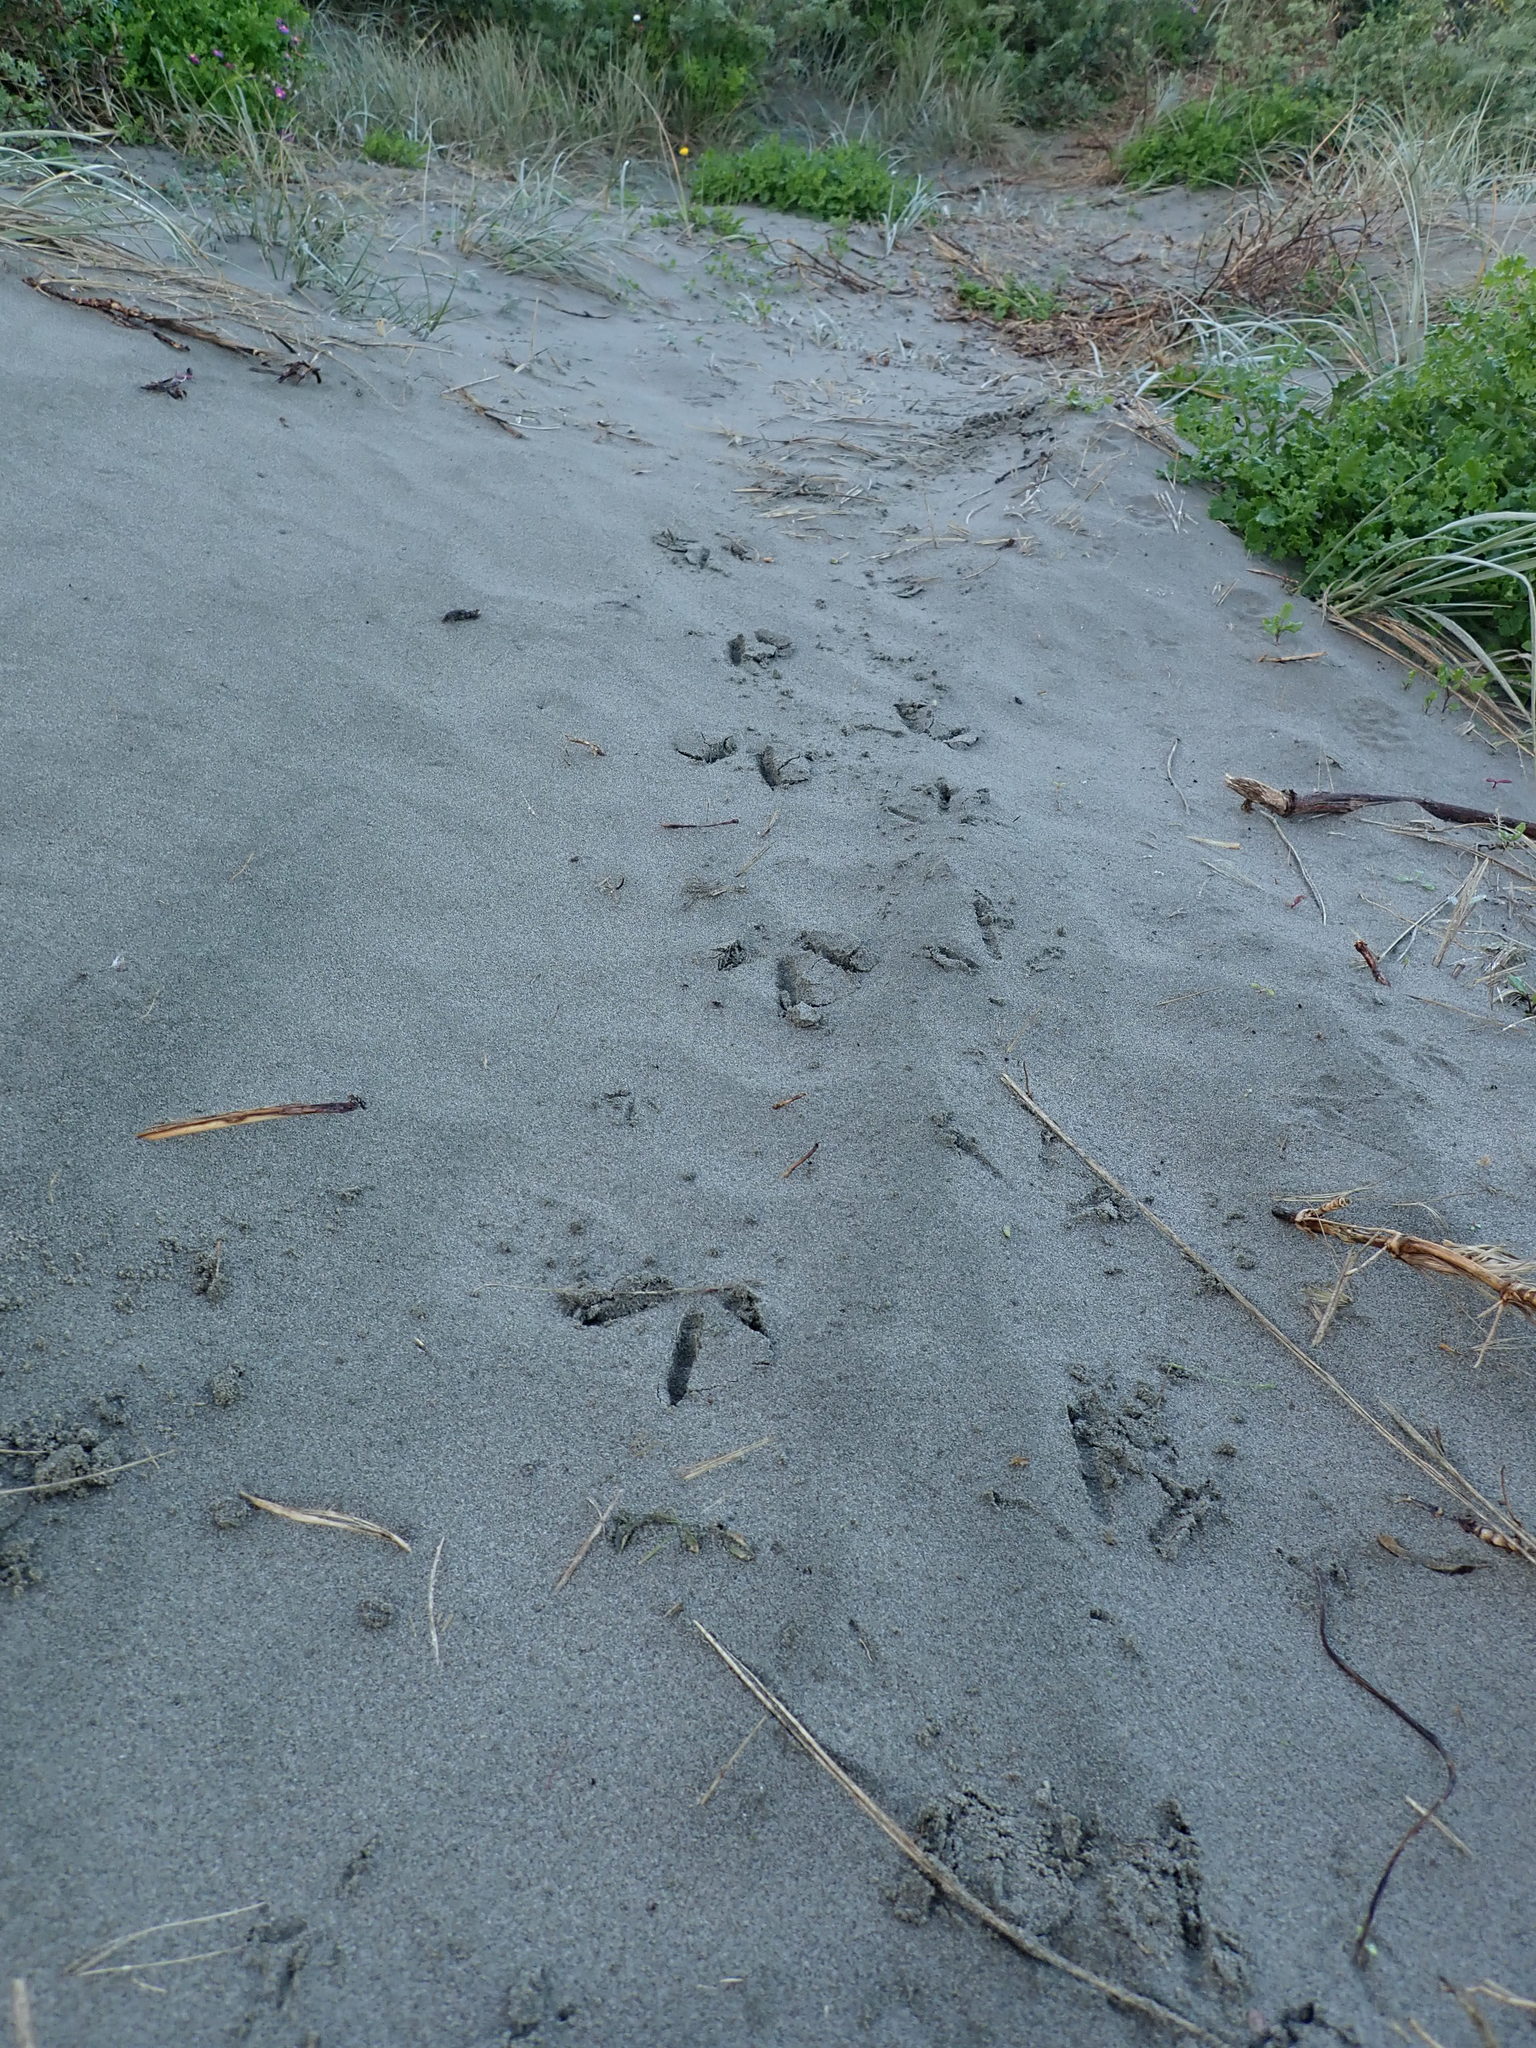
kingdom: Animalia
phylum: Chordata
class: Aves
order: Galliformes
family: Phasianidae
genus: Phasianus
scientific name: Phasianus colchicus
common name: Common pheasant
